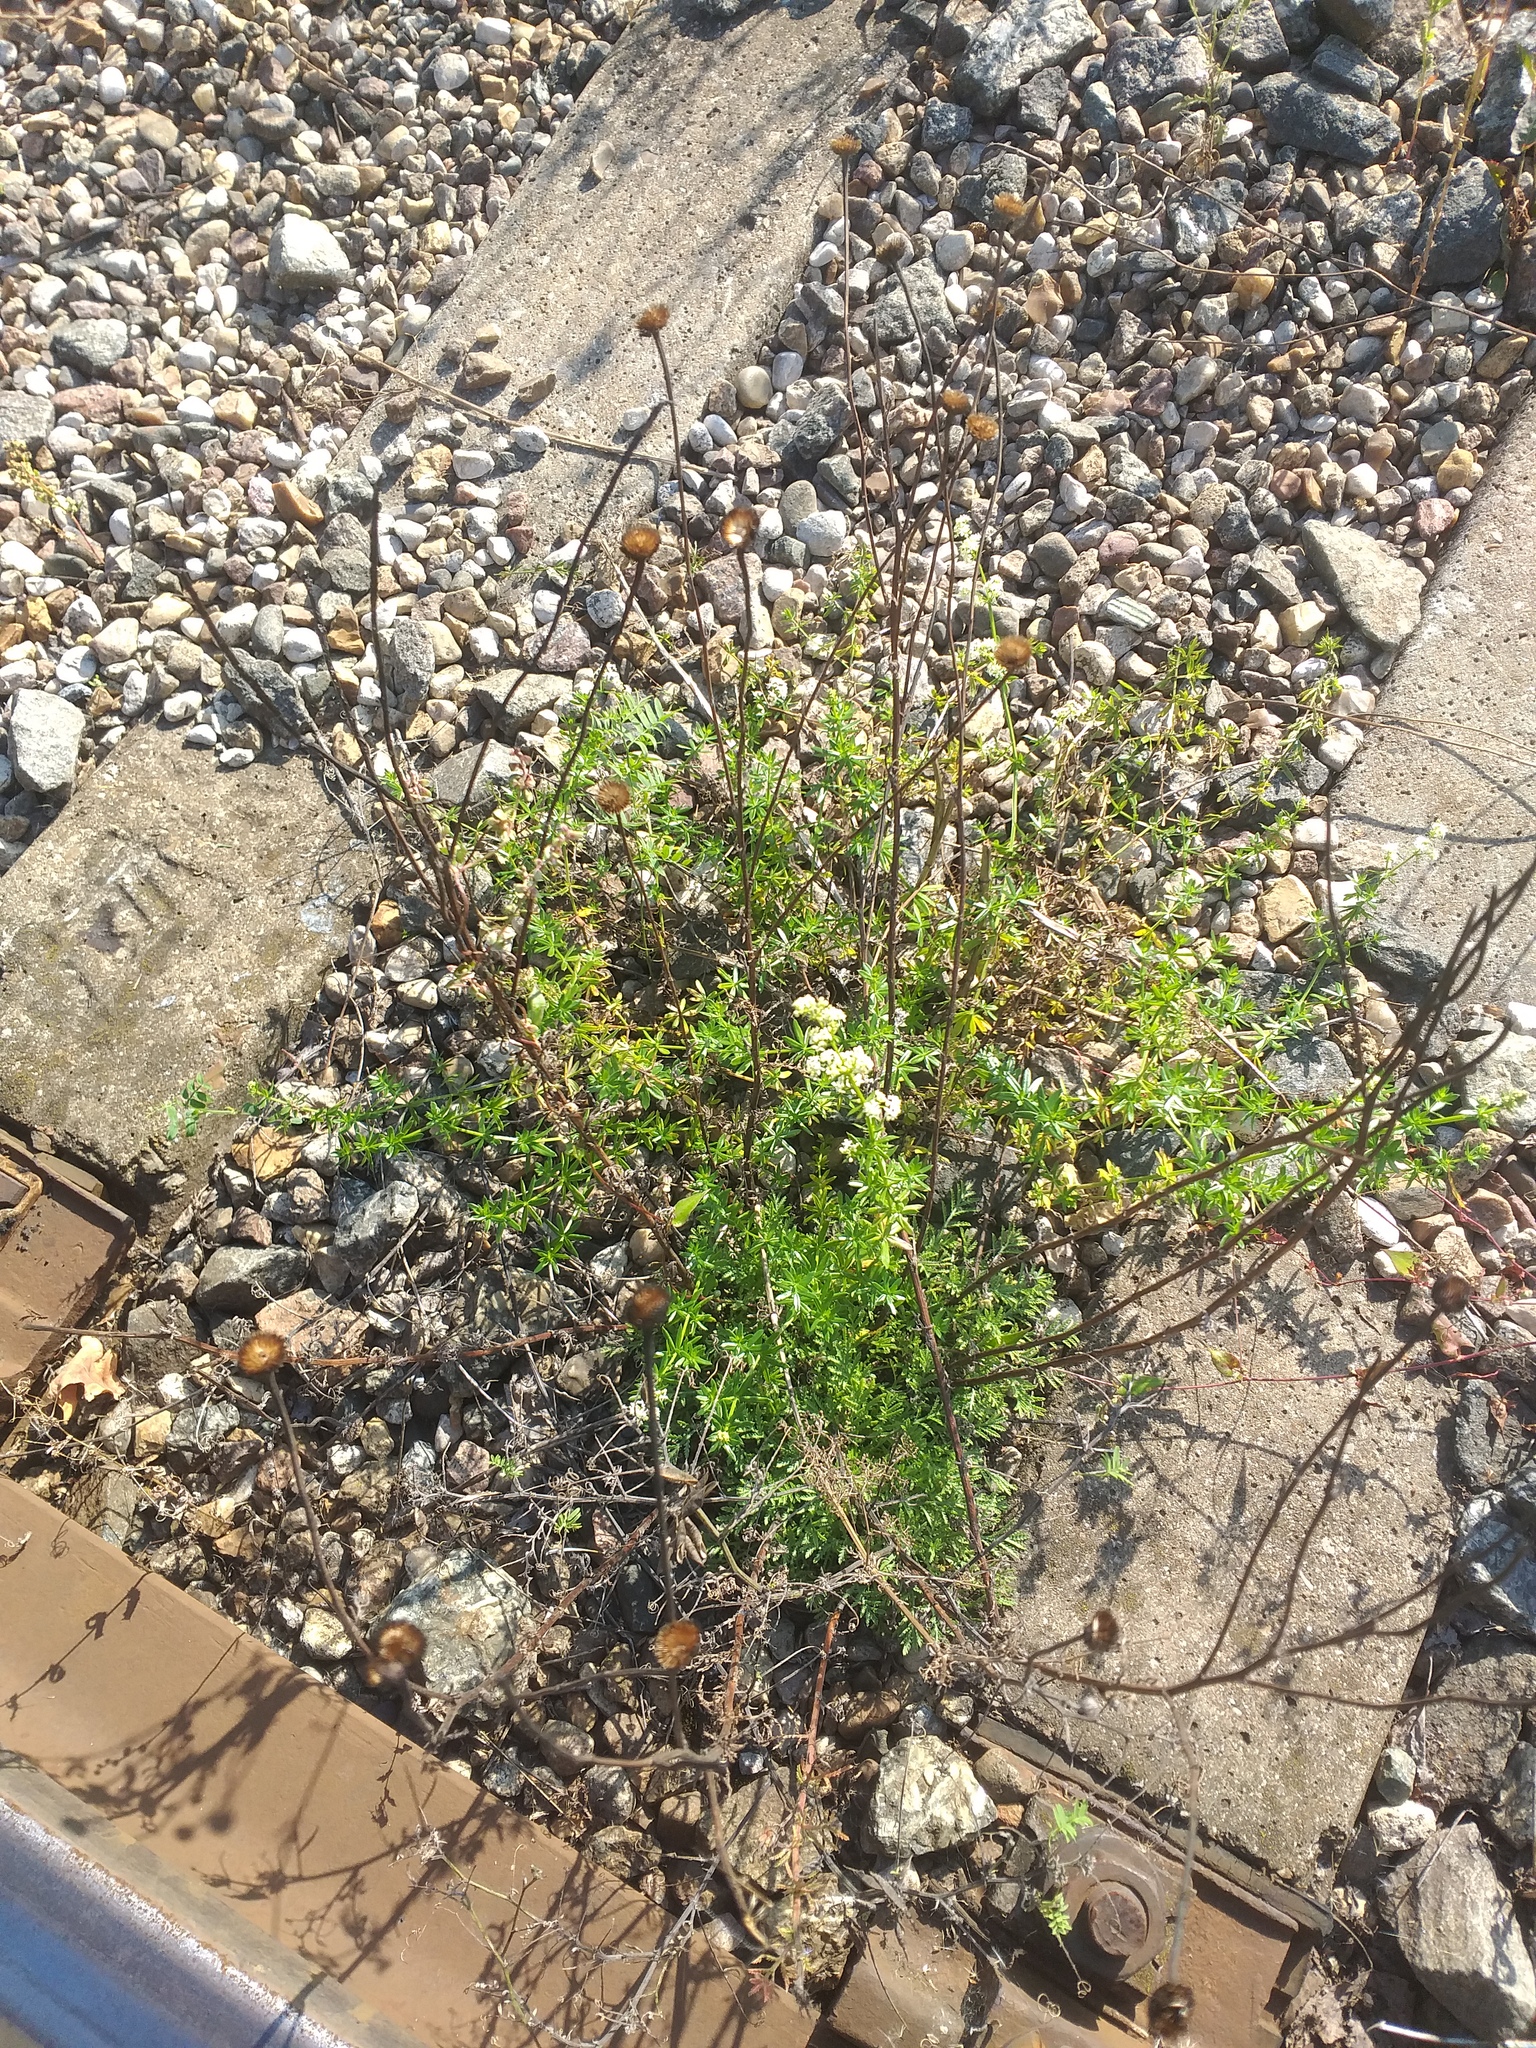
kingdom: Plantae
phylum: Tracheophyta
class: Magnoliopsida
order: Gentianales
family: Rubiaceae
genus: Galium
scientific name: Galium mollugo
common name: Hedge bedstraw
